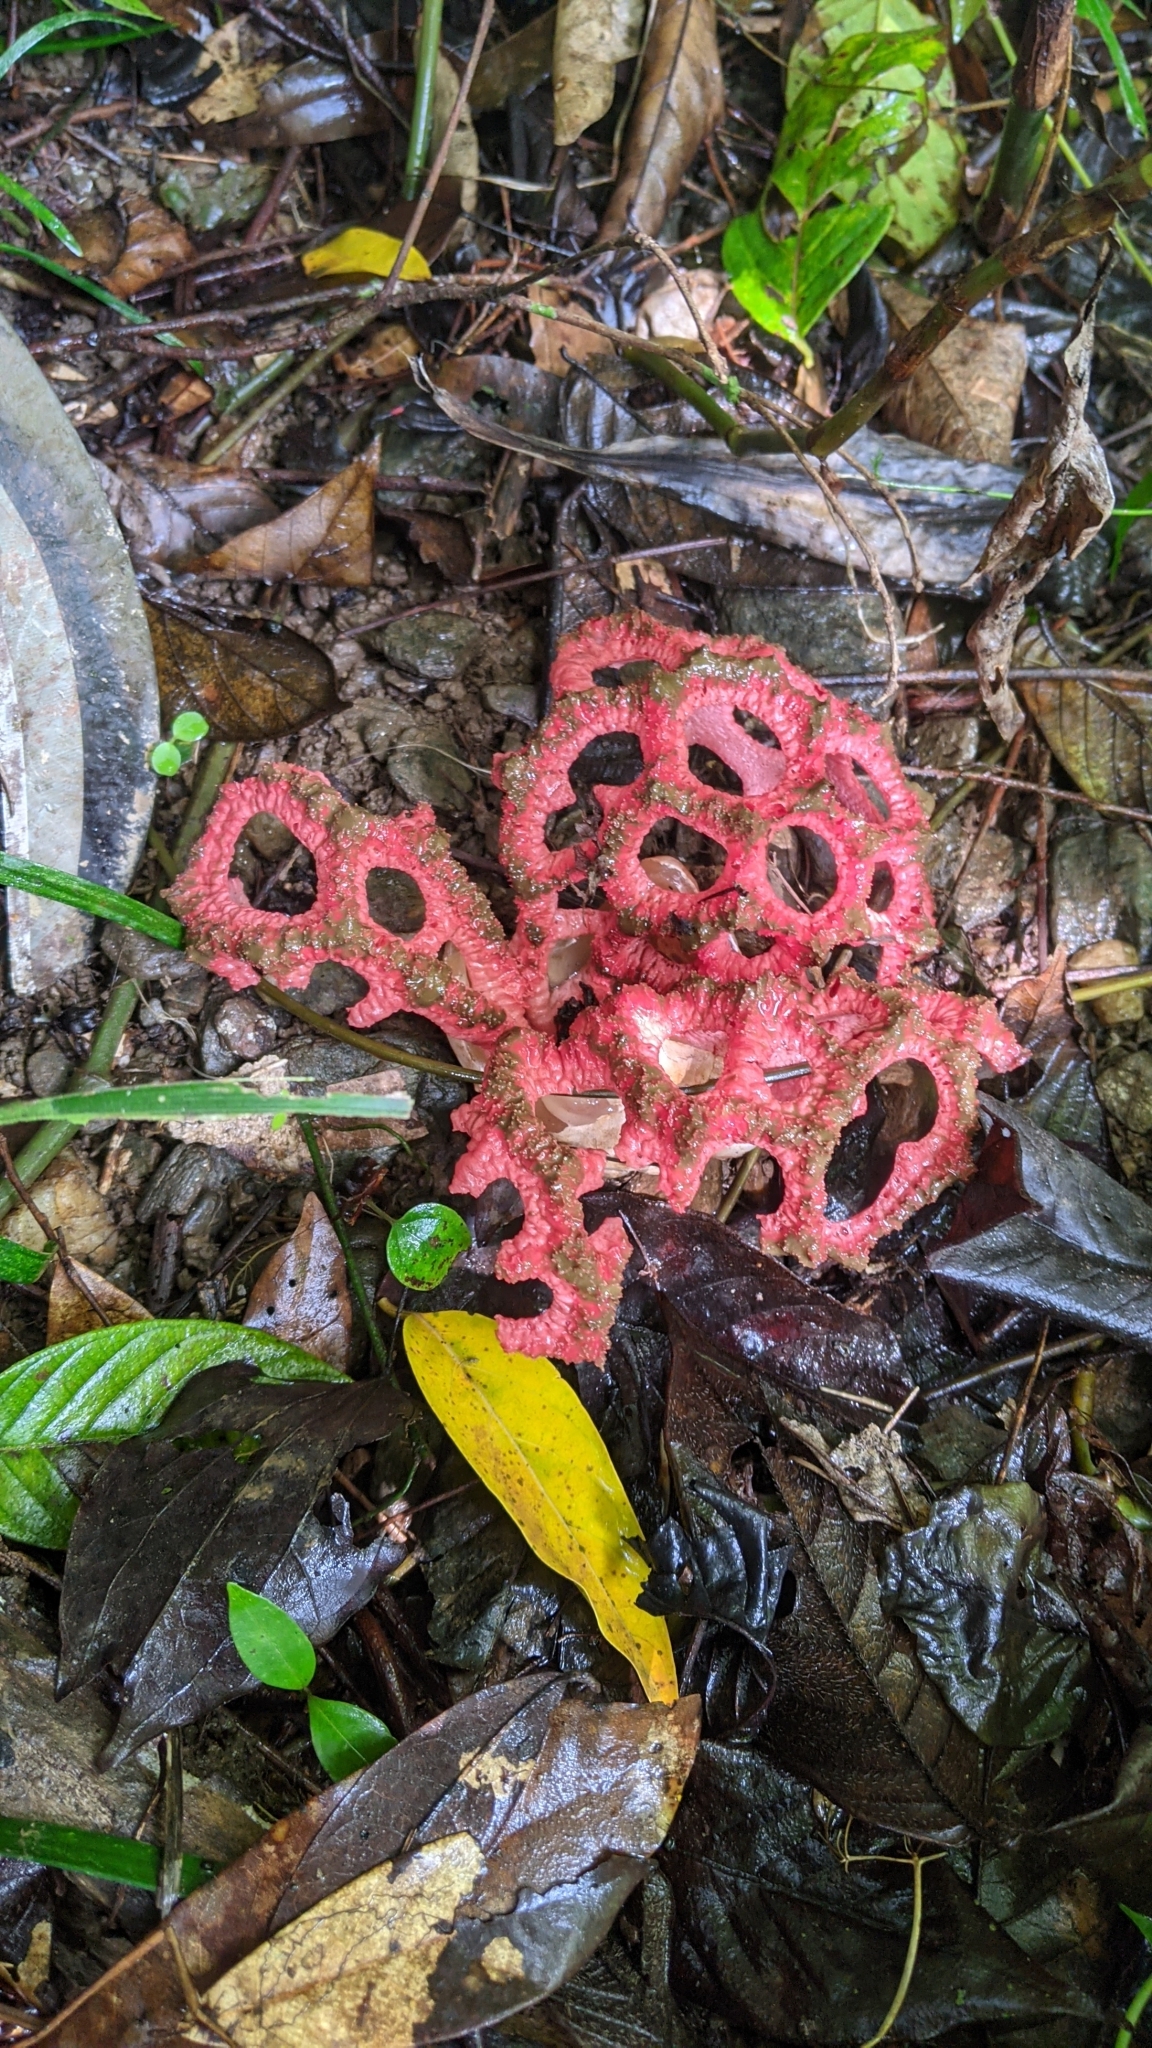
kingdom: Fungi
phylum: Basidiomycota
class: Agaricomycetes
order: Phallales
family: Phallaceae
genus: Clathrus
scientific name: Clathrus crispatus
